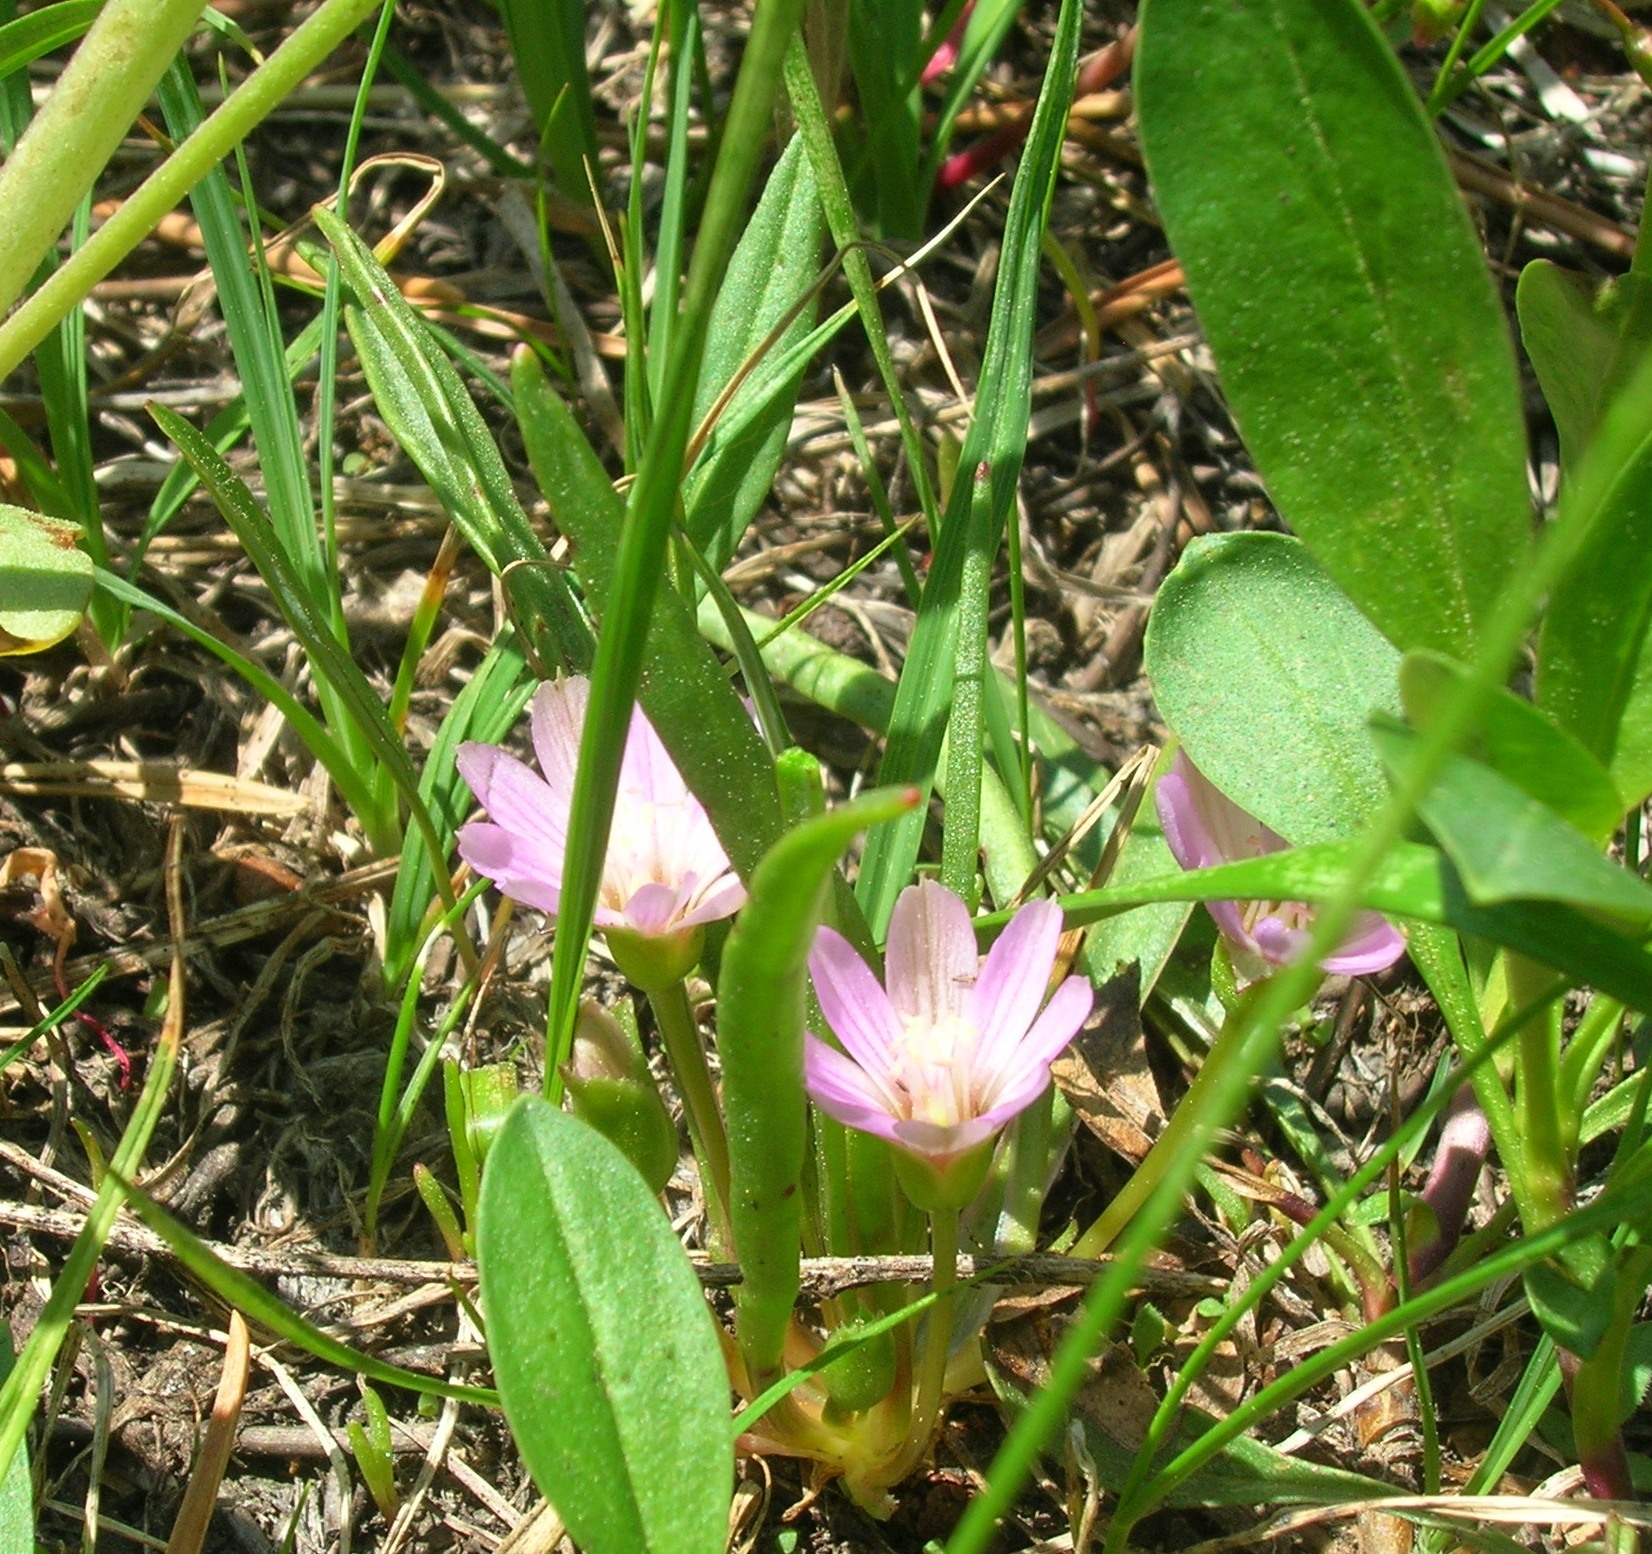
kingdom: Plantae
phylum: Tracheophyta
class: Magnoliopsida
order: Caryophyllales
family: Montiaceae
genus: Lewisia
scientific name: Lewisia pygmaea
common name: Alpine bitterroot
